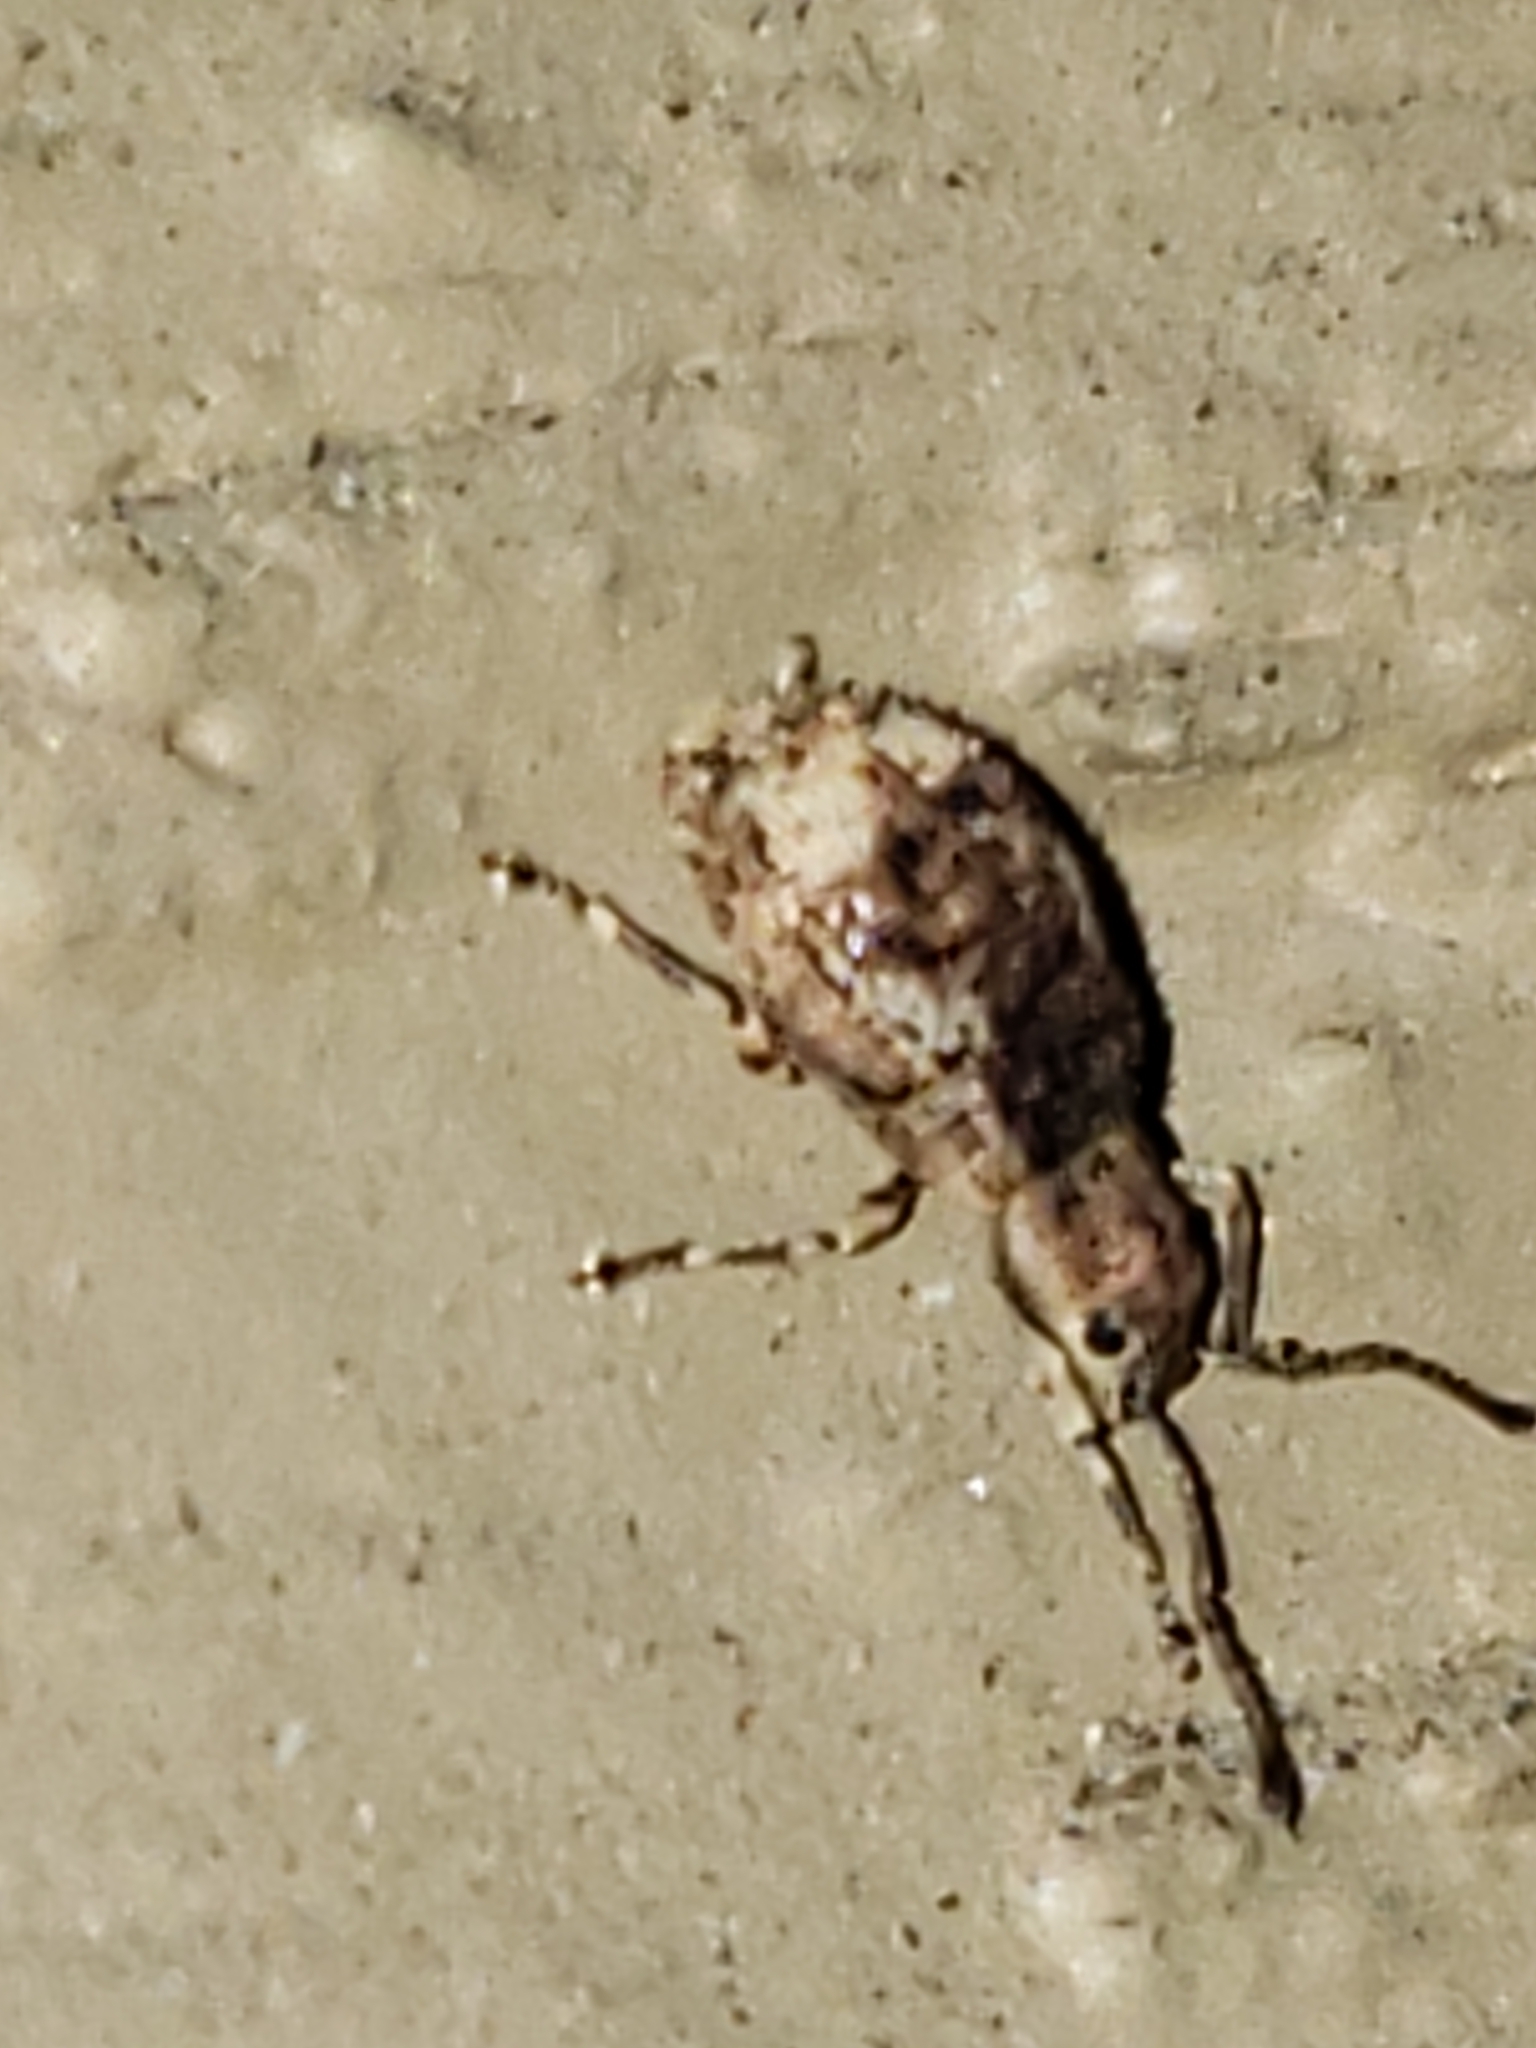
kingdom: Animalia
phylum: Arthropoda
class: Insecta
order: Coleoptera
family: Curculionidae
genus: Pseudoedophrys
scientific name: Pseudoedophrys hilleri
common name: Weevil
